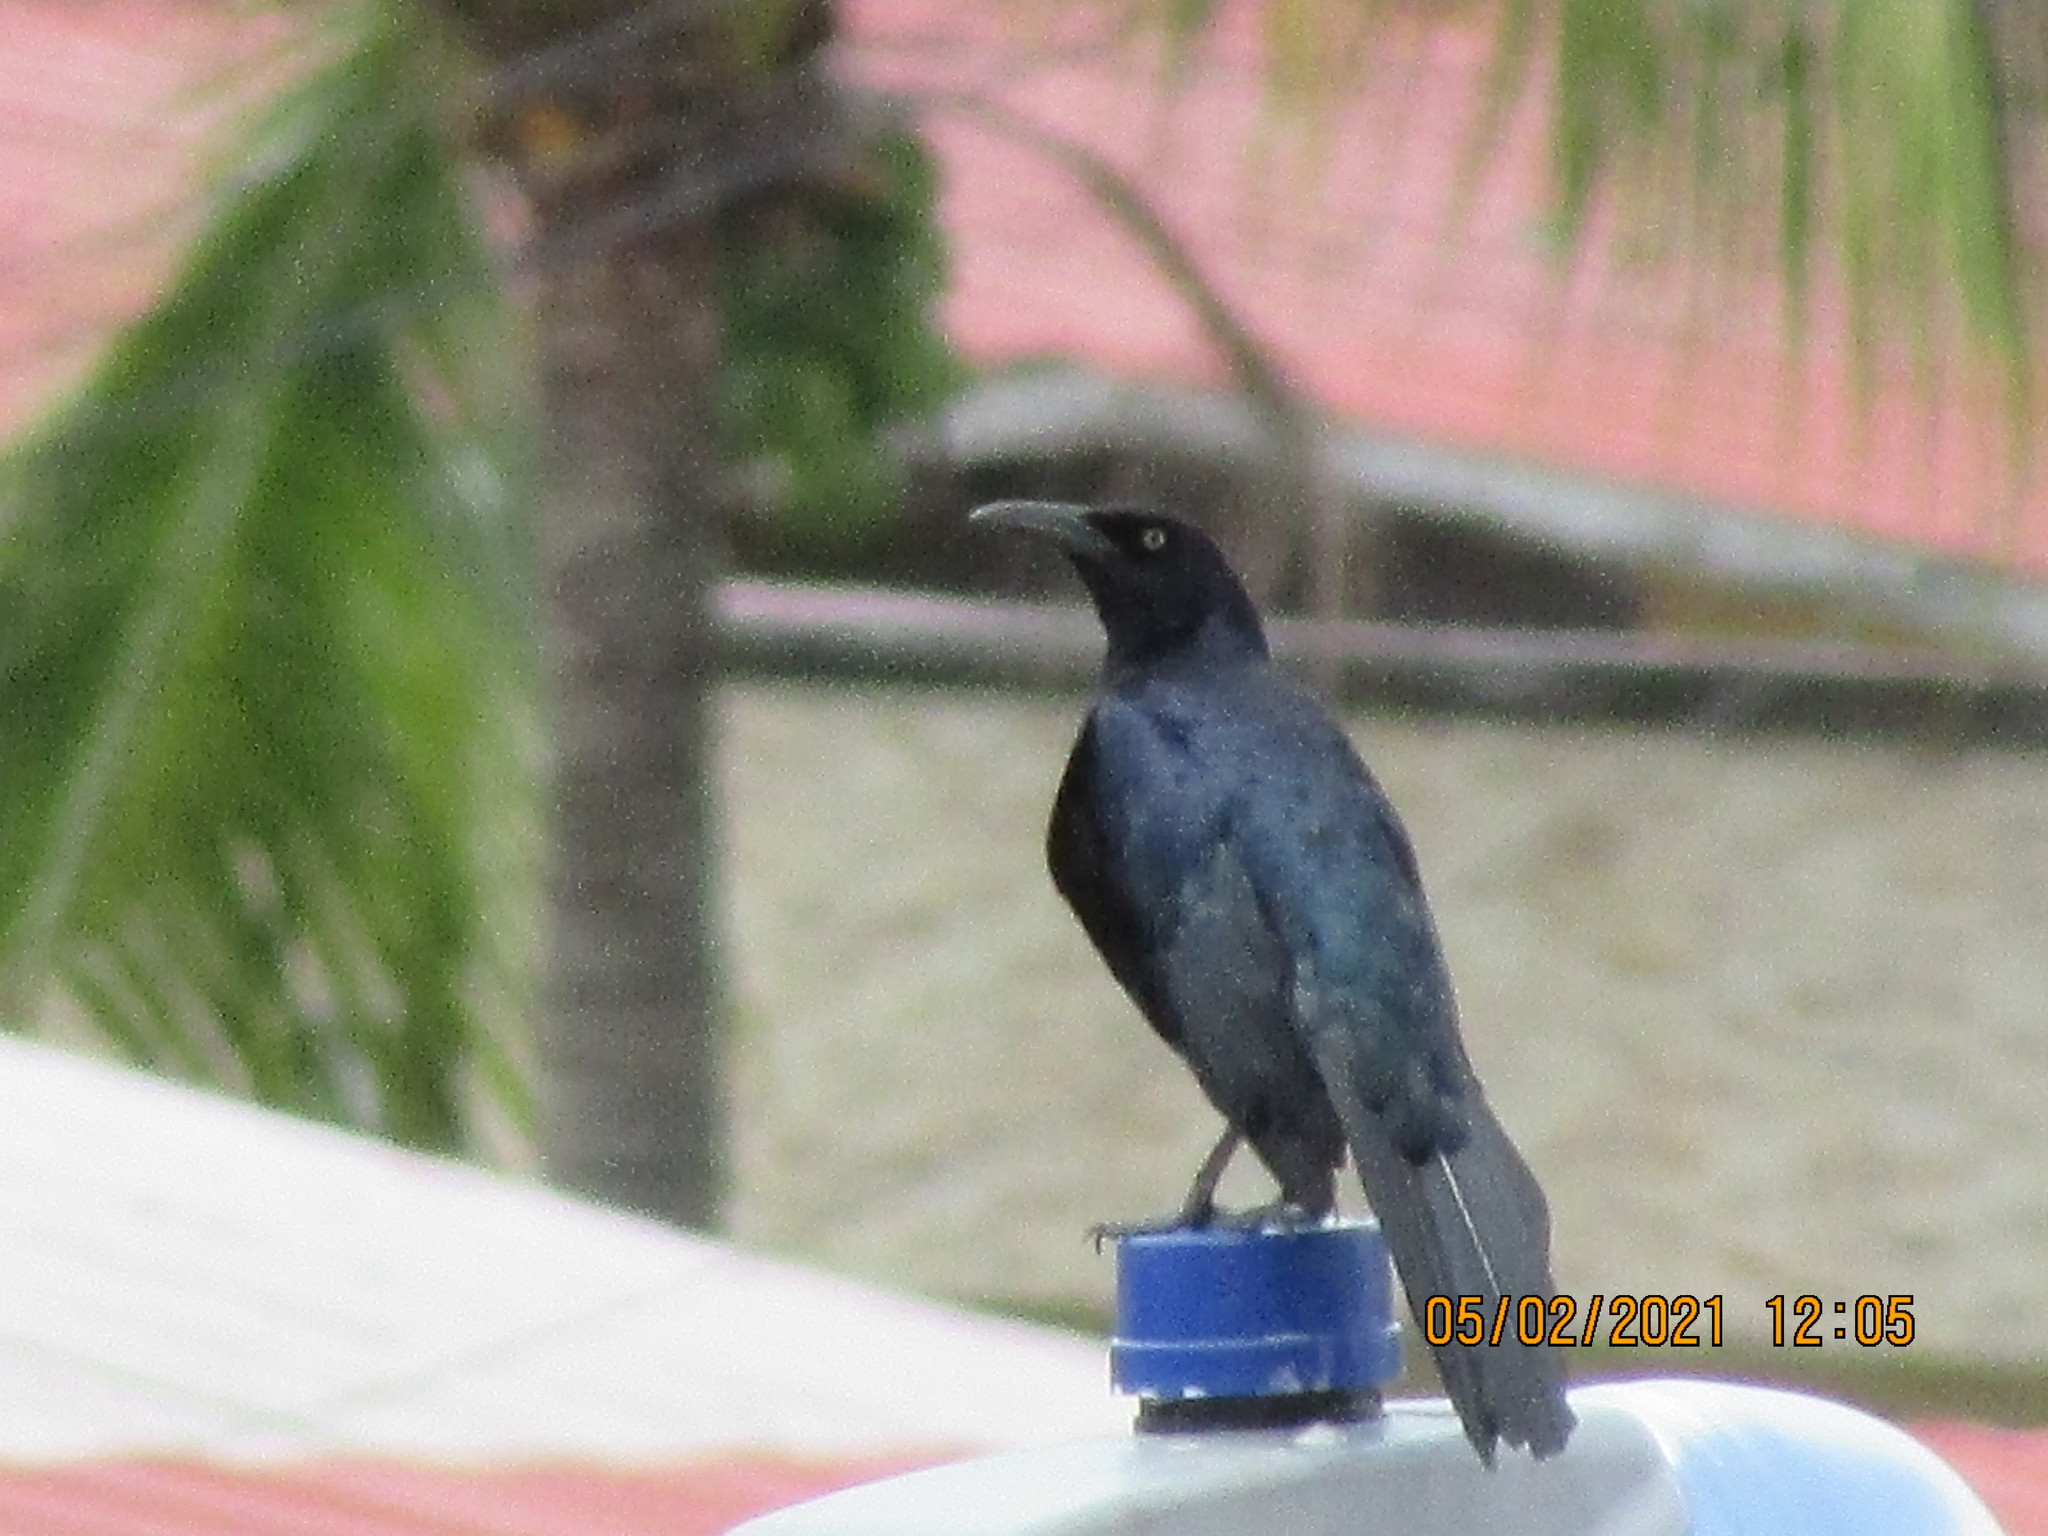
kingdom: Animalia
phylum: Chordata
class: Aves
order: Passeriformes
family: Icteridae
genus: Quiscalus
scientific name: Quiscalus mexicanus
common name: Great-tailed grackle
